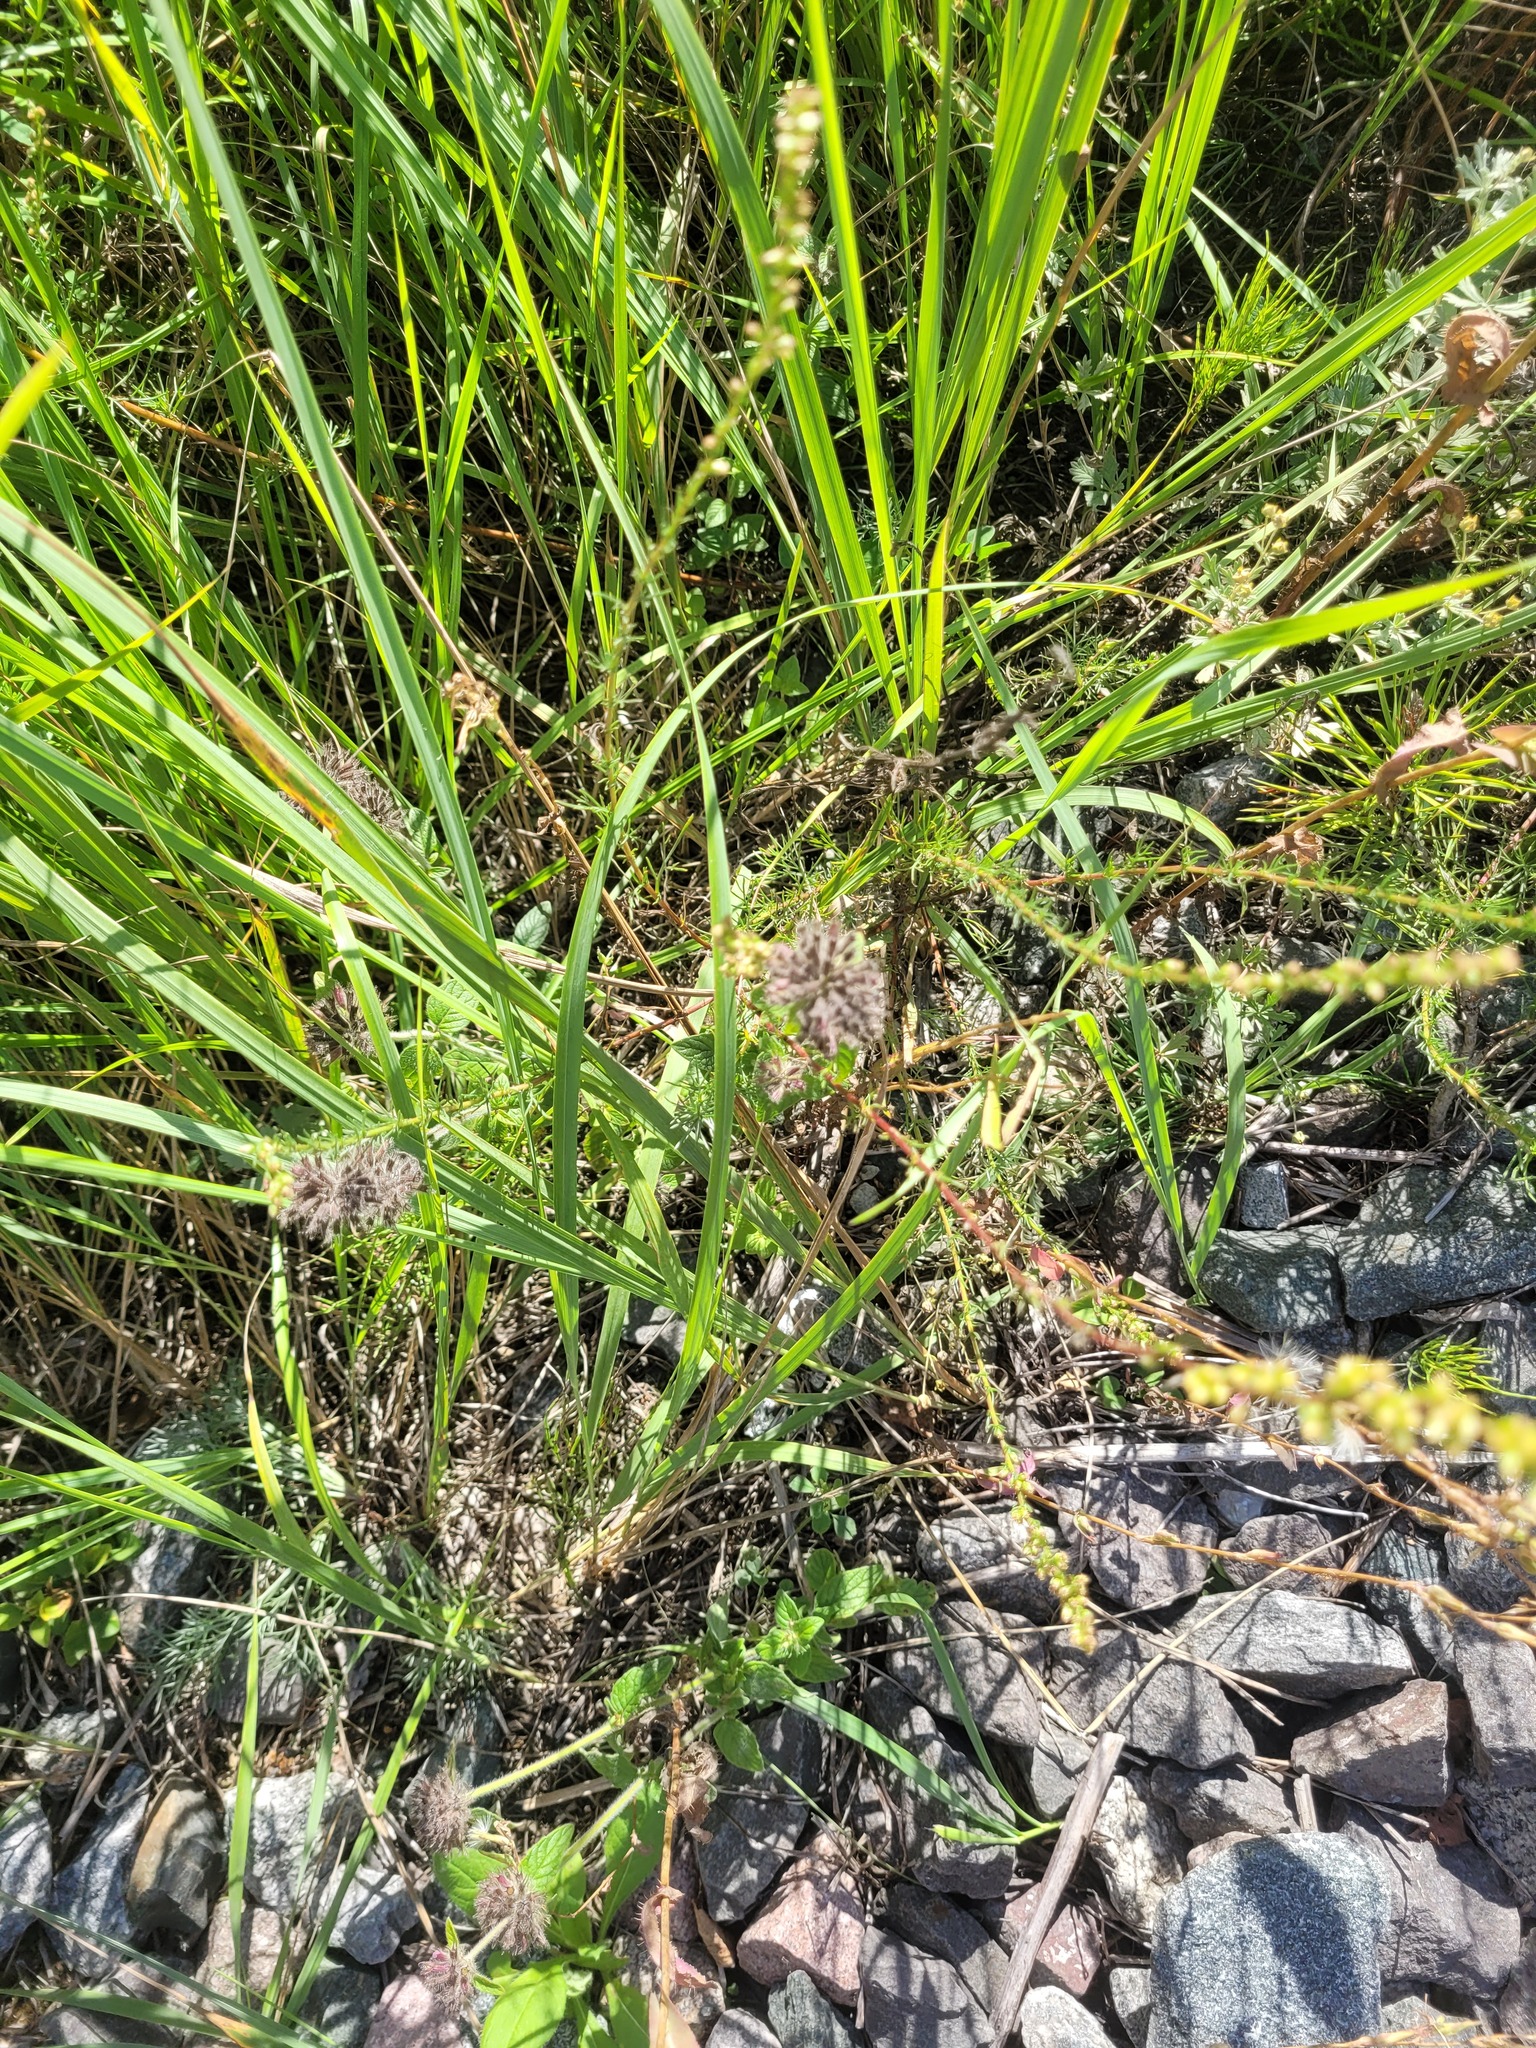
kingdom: Plantae
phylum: Tracheophyta
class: Magnoliopsida
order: Lamiales
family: Lamiaceae
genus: Clinopodium
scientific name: Clinopodium vulgare
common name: Wild basil
